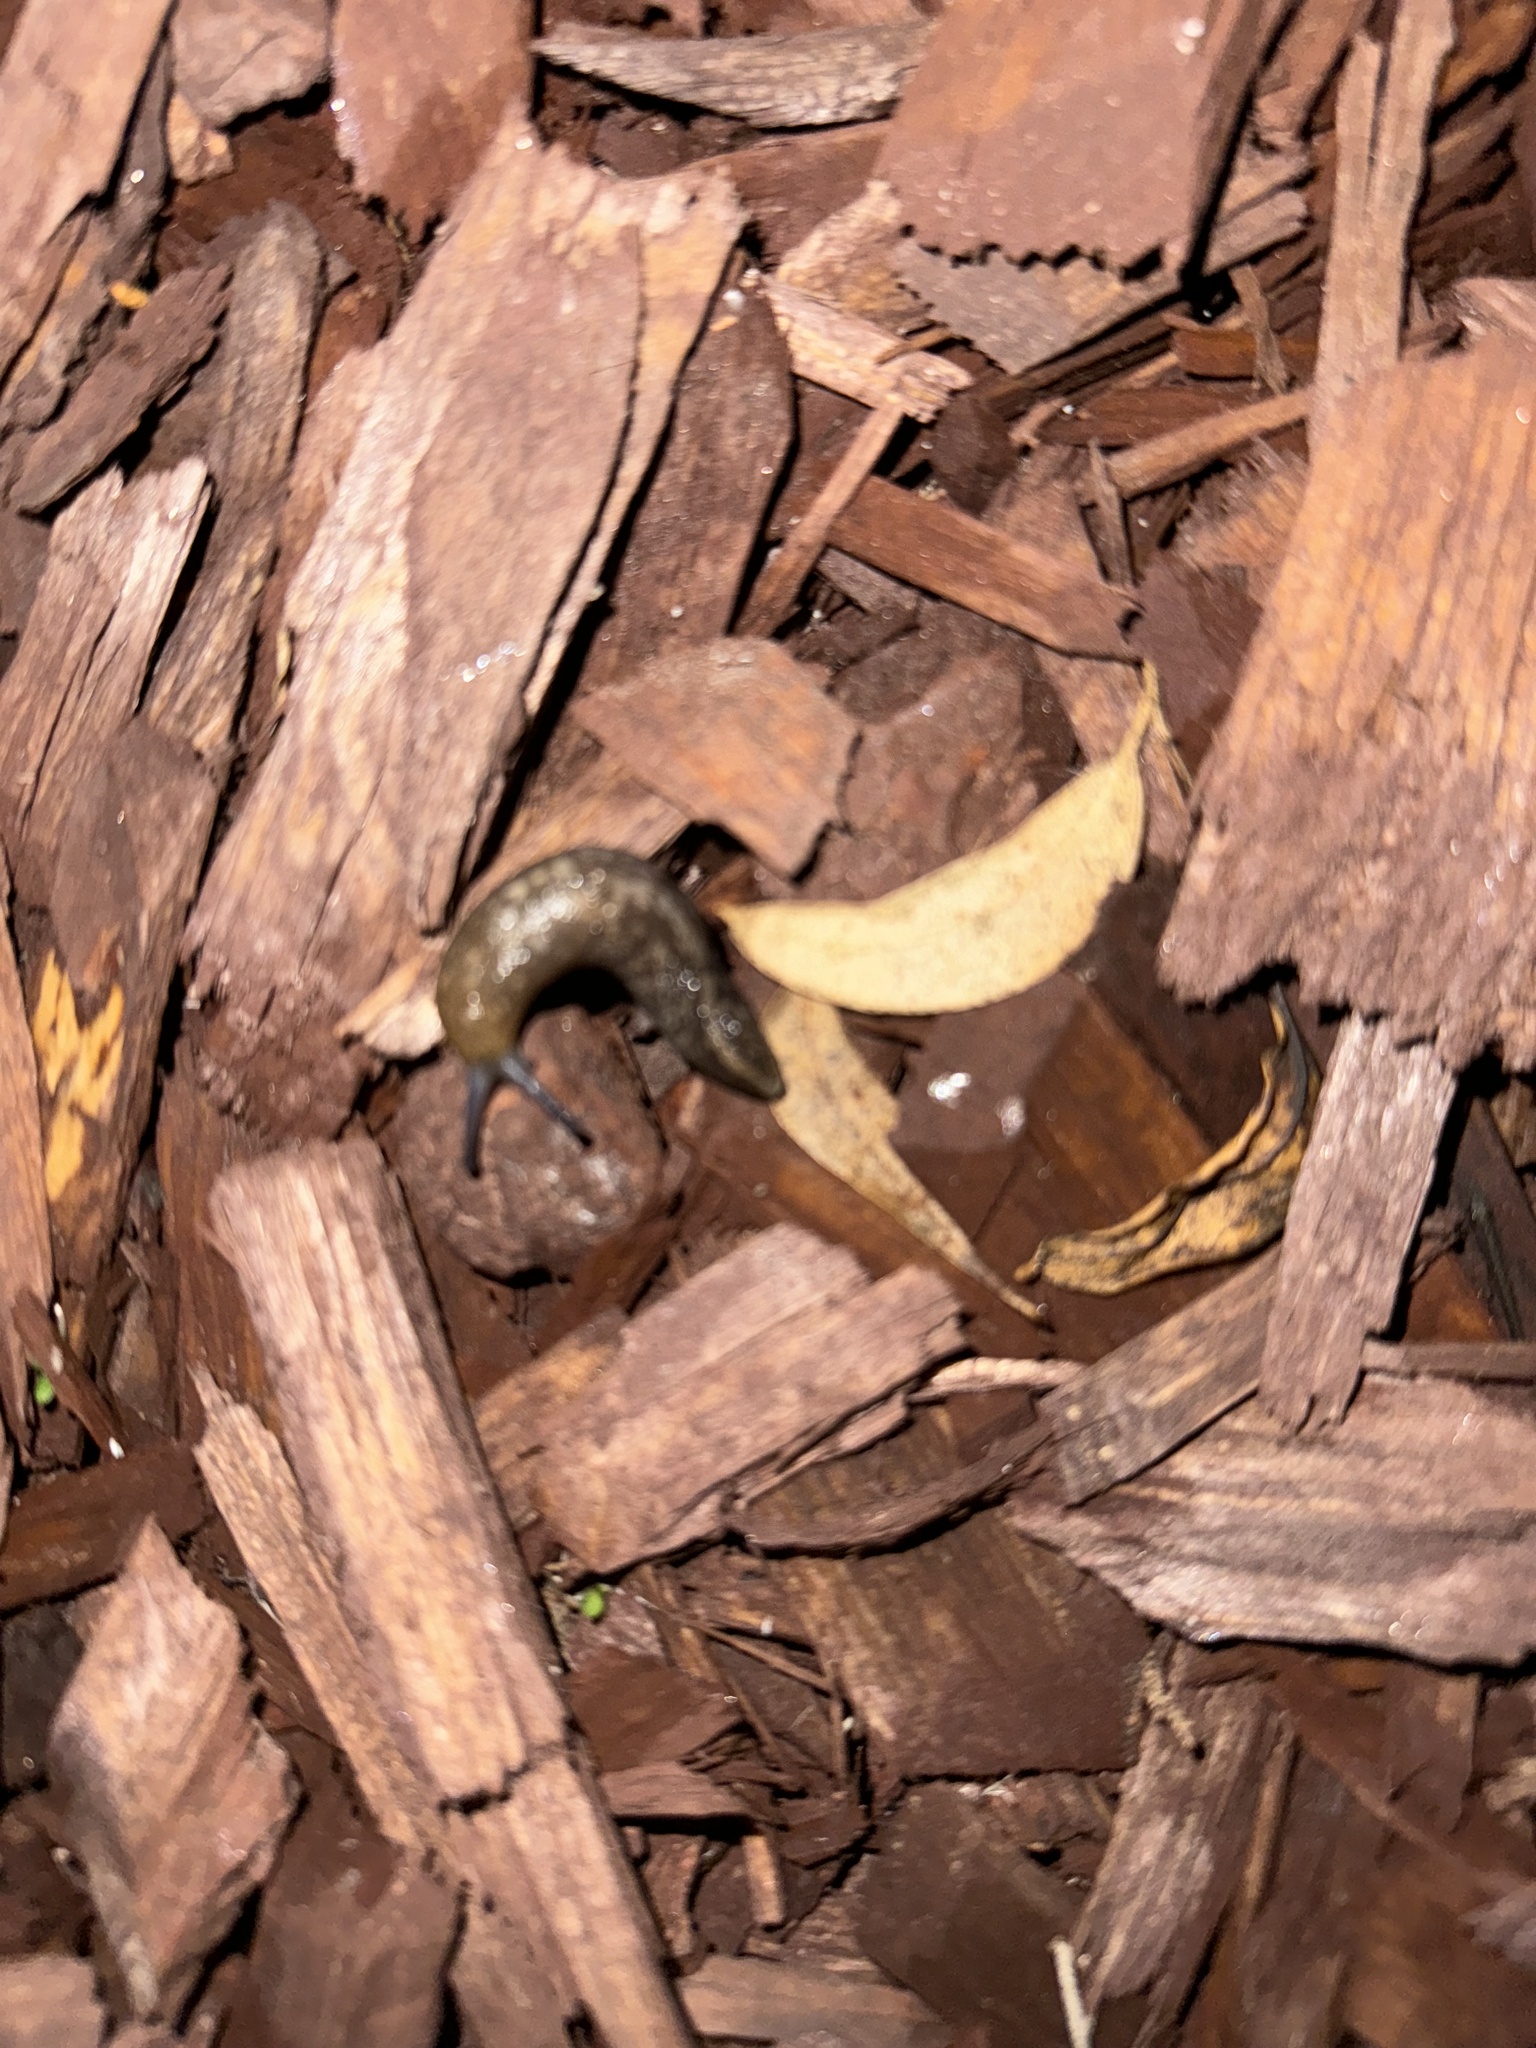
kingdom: Animalia
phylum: Mollusca
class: Gastropoda
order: Stylommatophora
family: Limacidae
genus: Limacus
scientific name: Limacus flavus
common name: Yellow gardenslug
